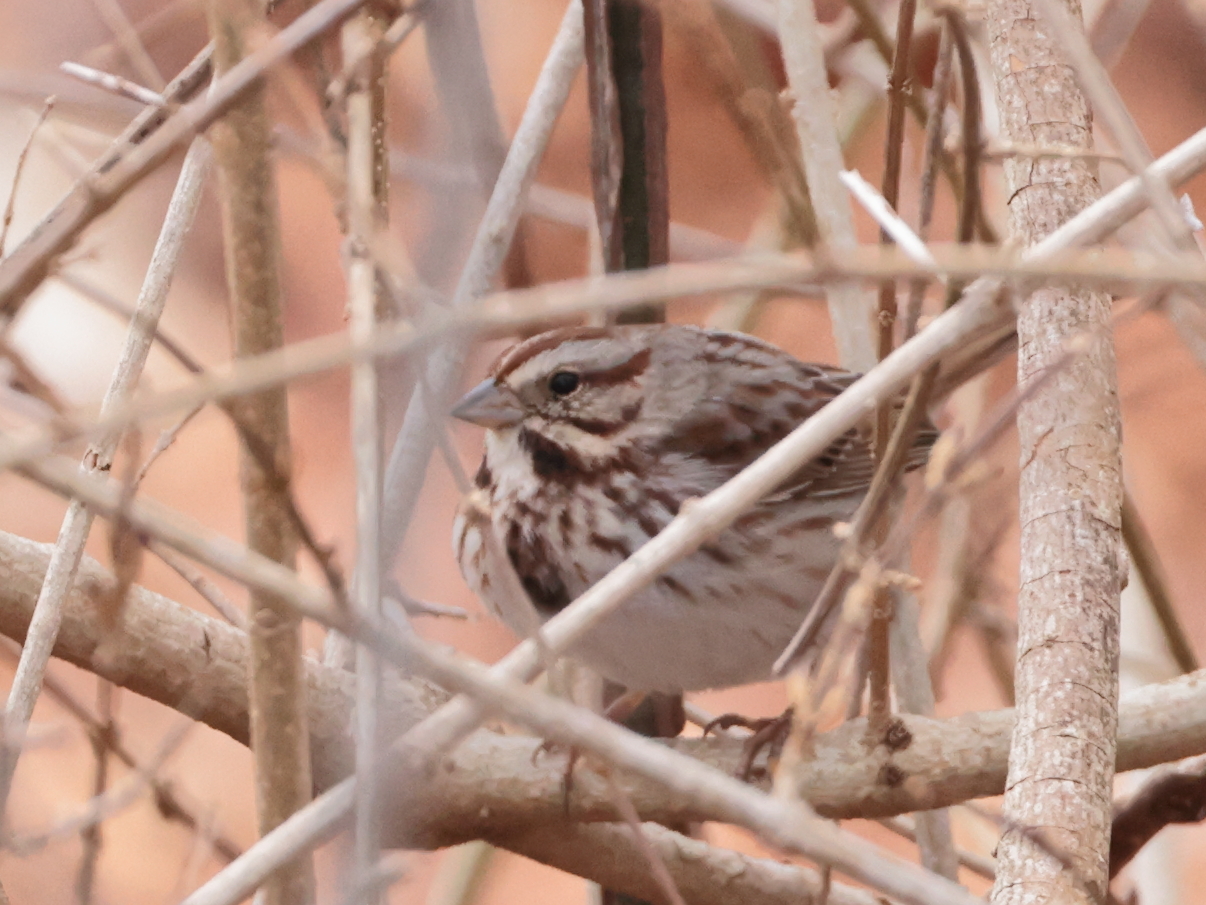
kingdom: Animalia
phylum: Chordata
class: Aves
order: Passeriformes
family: Passerellidae
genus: Melospiza
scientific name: Melospiza melodia
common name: Song sparrow
